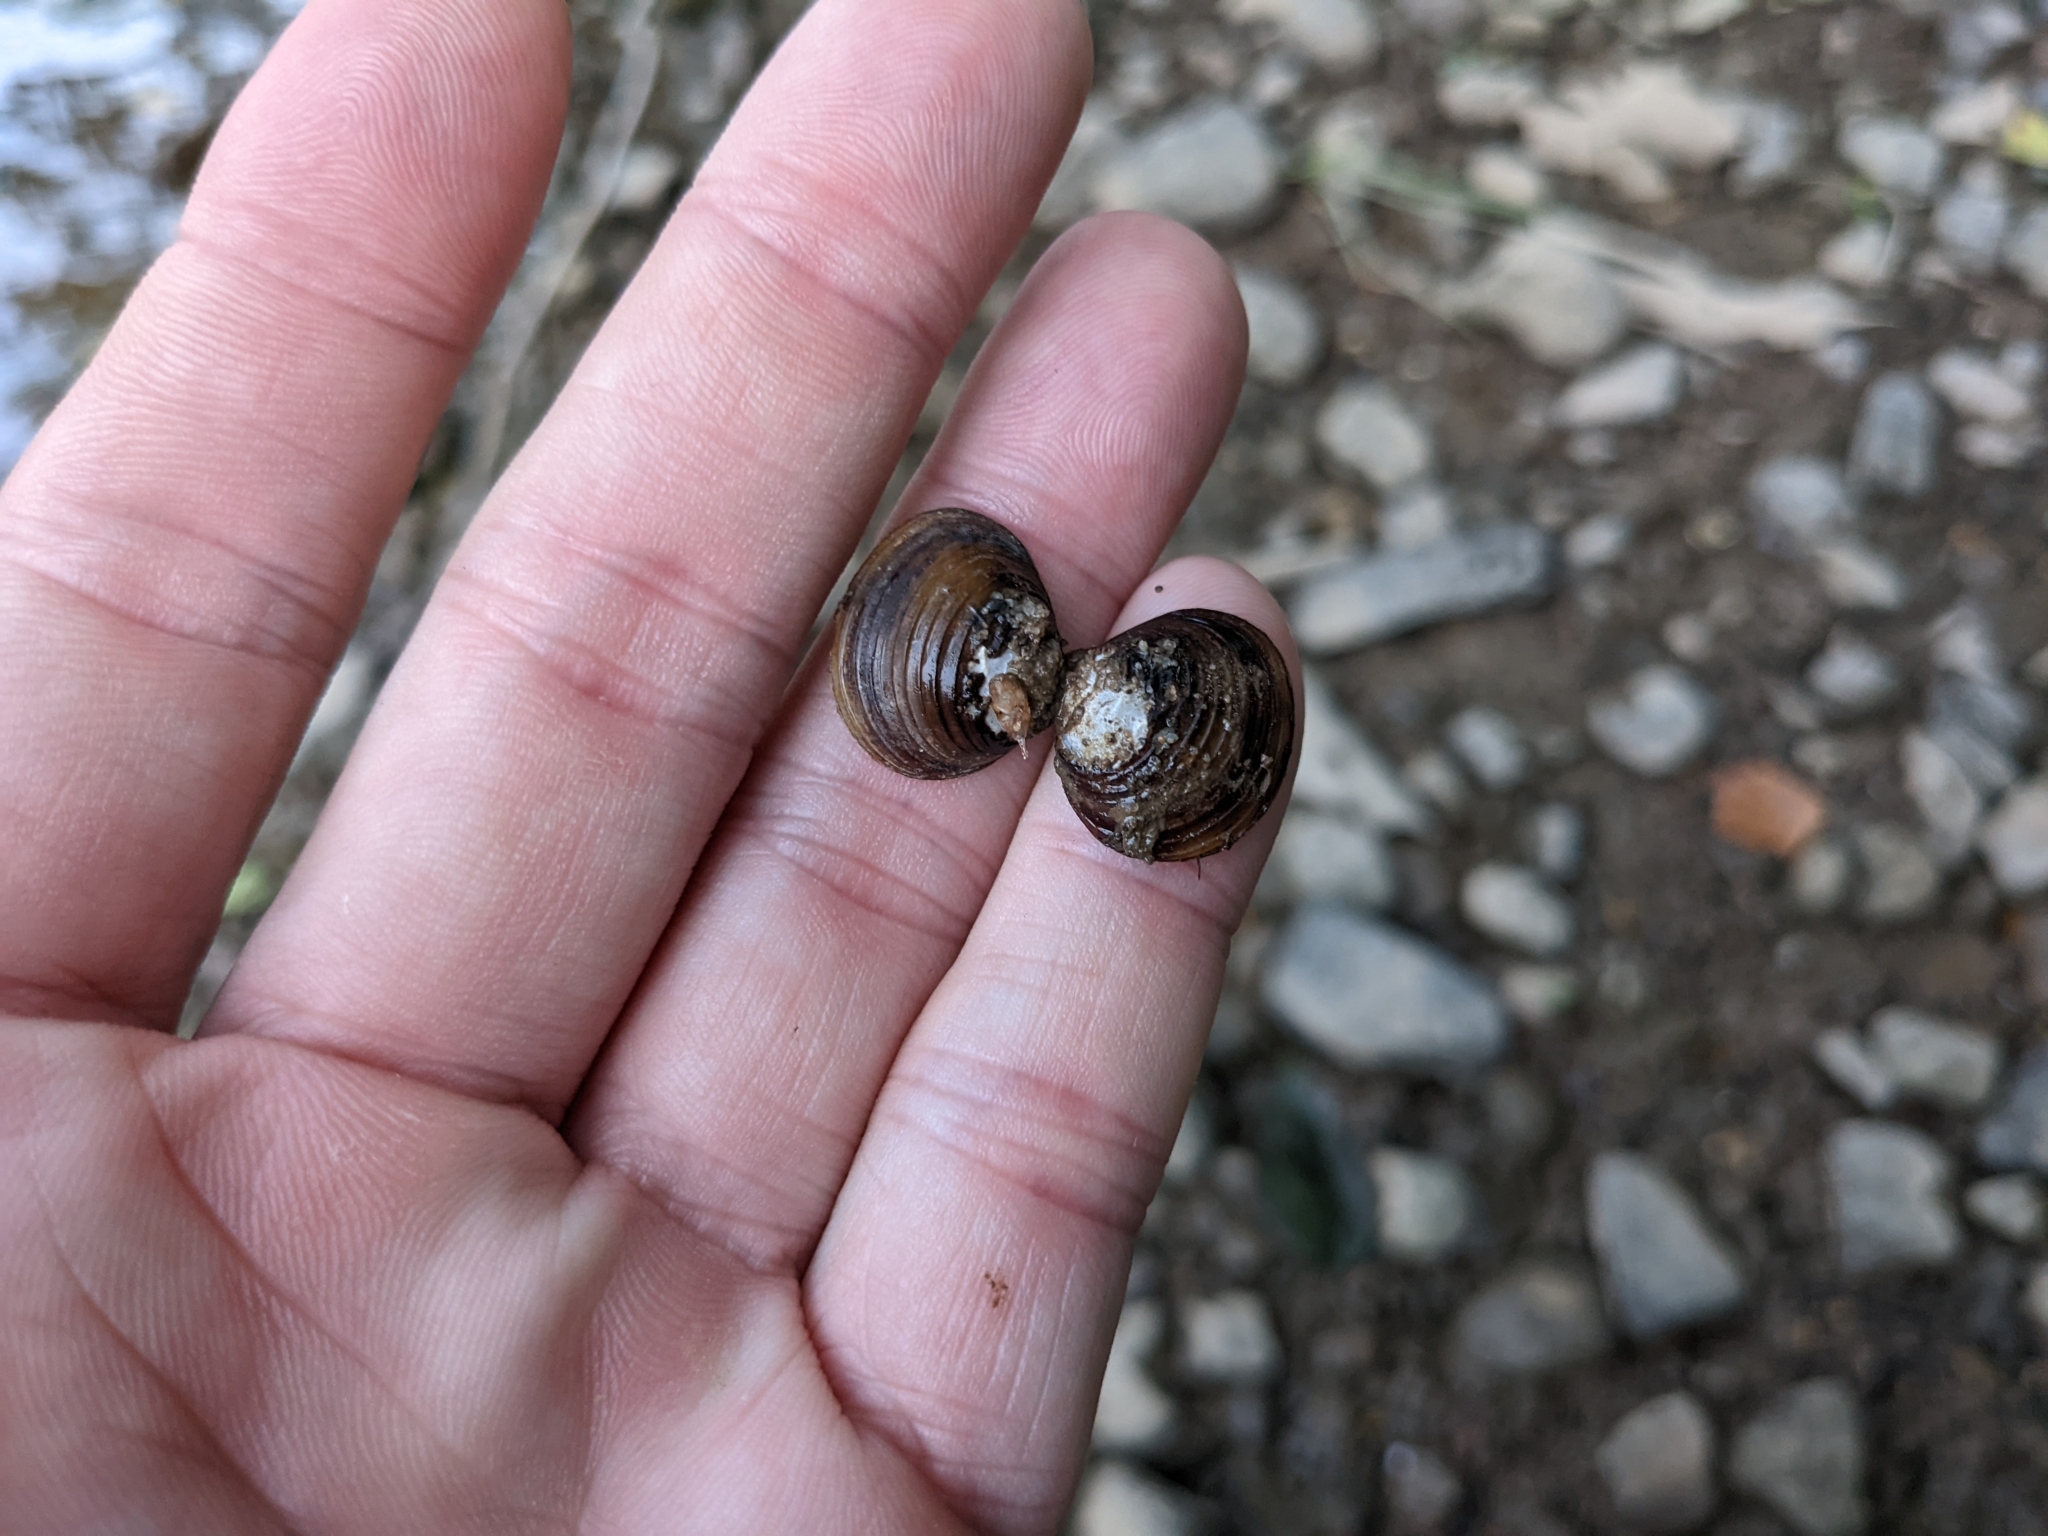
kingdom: Animalia
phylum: Mollusca
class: Bivalvia
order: Venerida
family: Cyrenidae
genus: Corbicula
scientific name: Corbicula fluminea
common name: Asian clam
